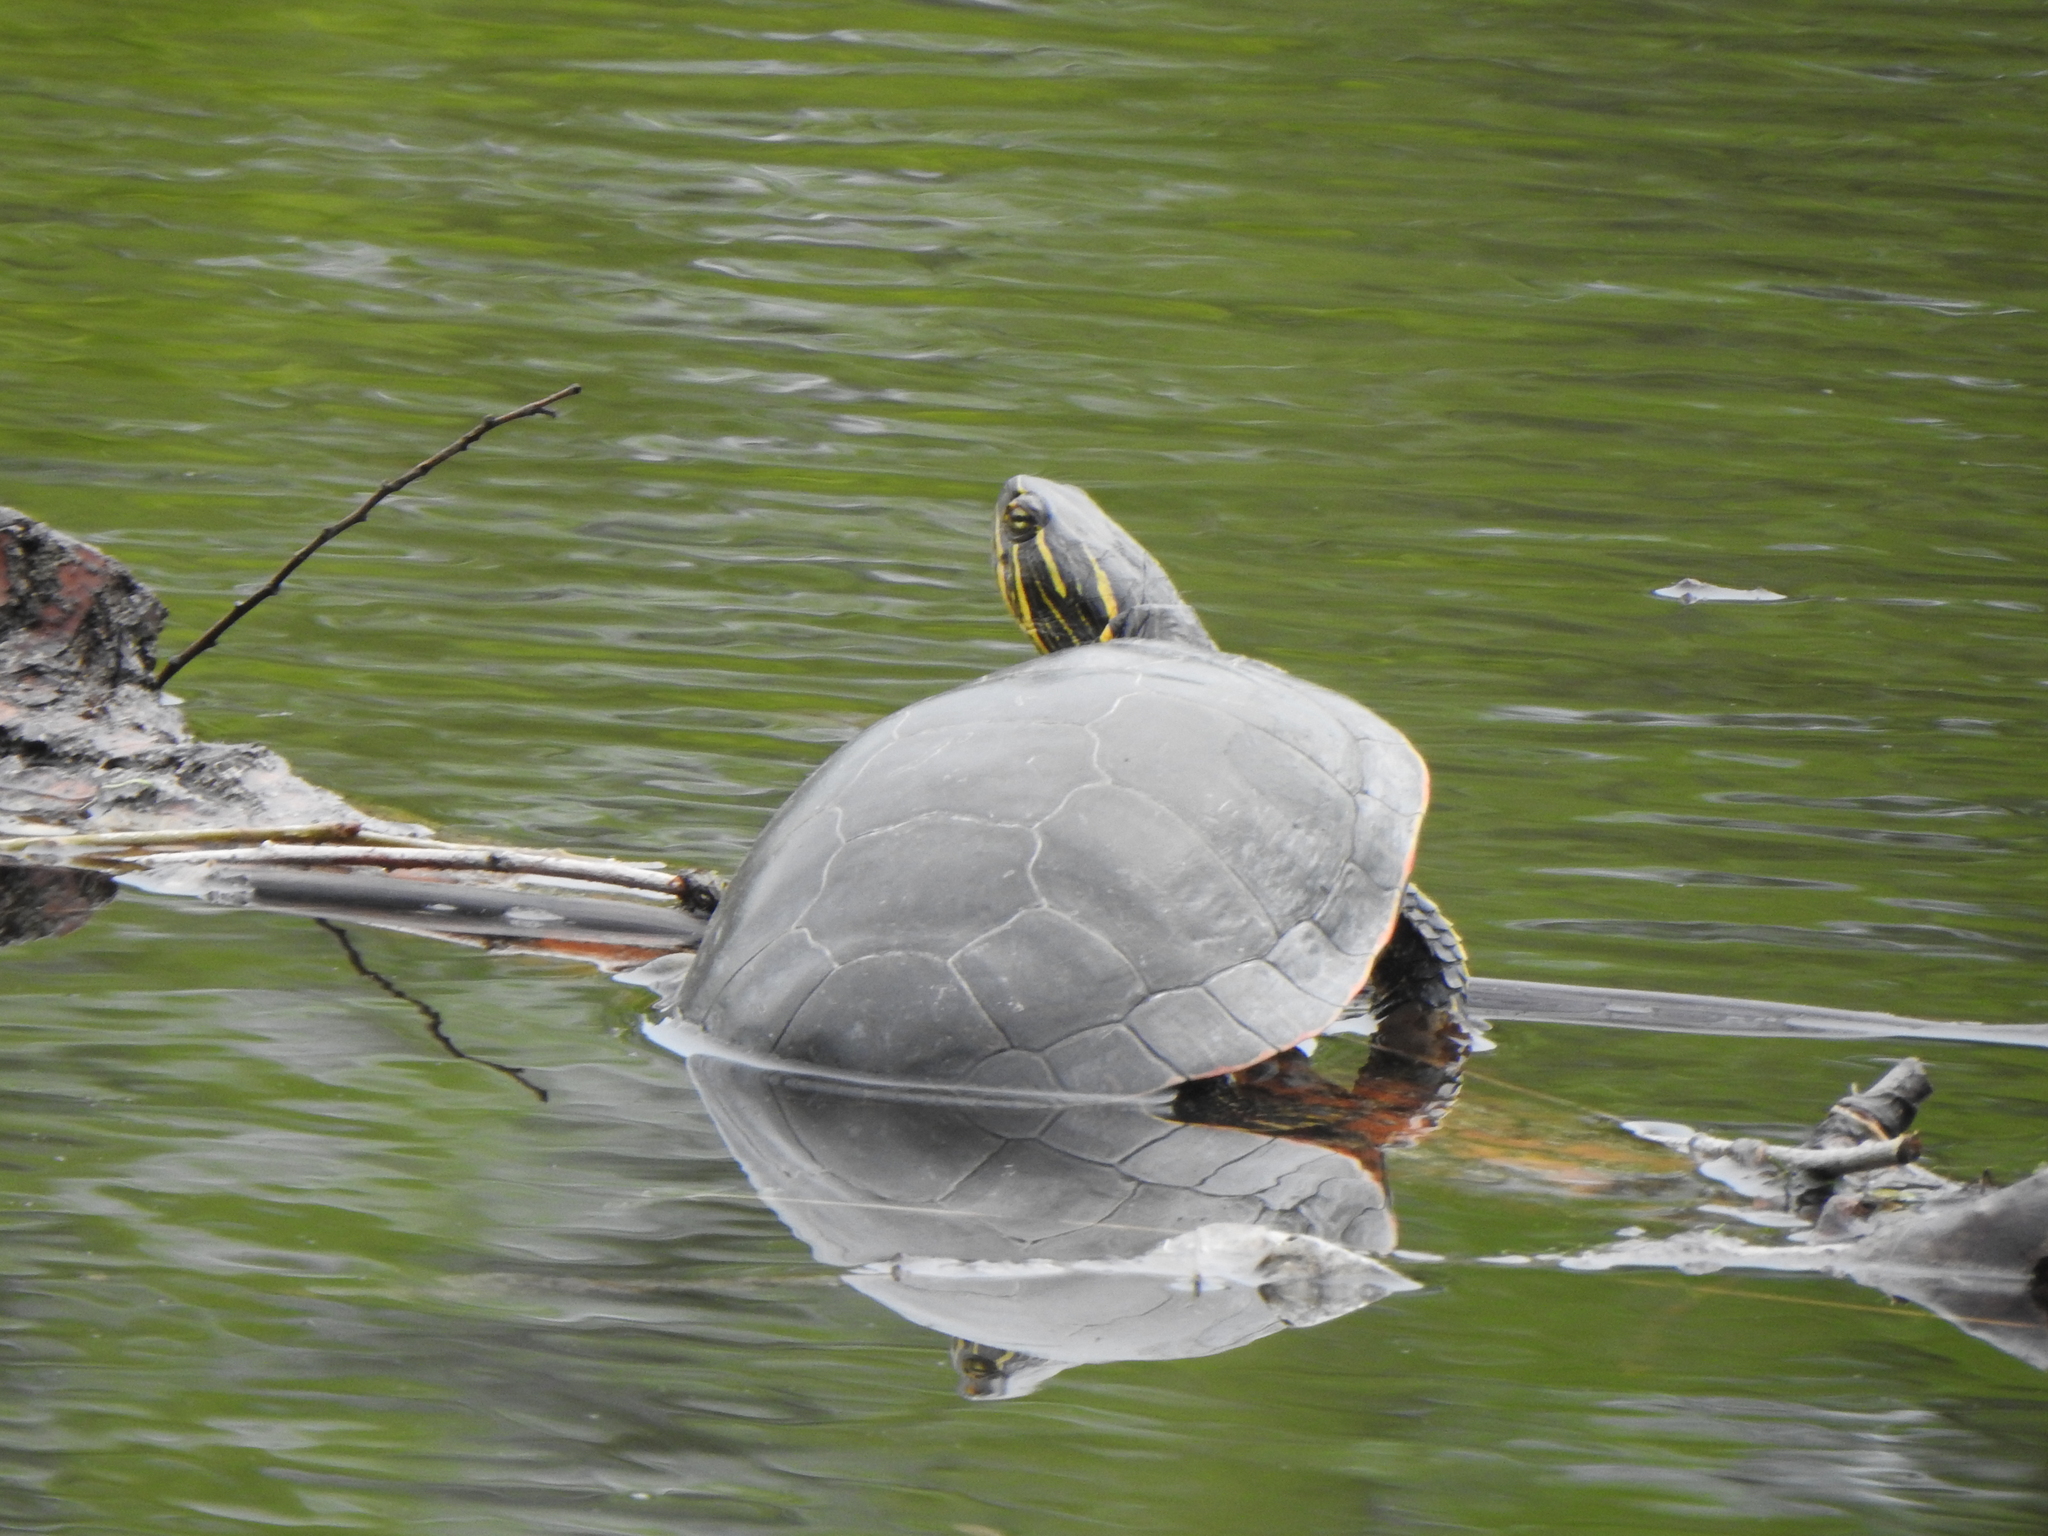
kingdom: Animalia
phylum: Chordata
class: Testudines
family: Emydidae
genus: Chrysemys
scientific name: Chrysemys picta
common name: Painted turtle
